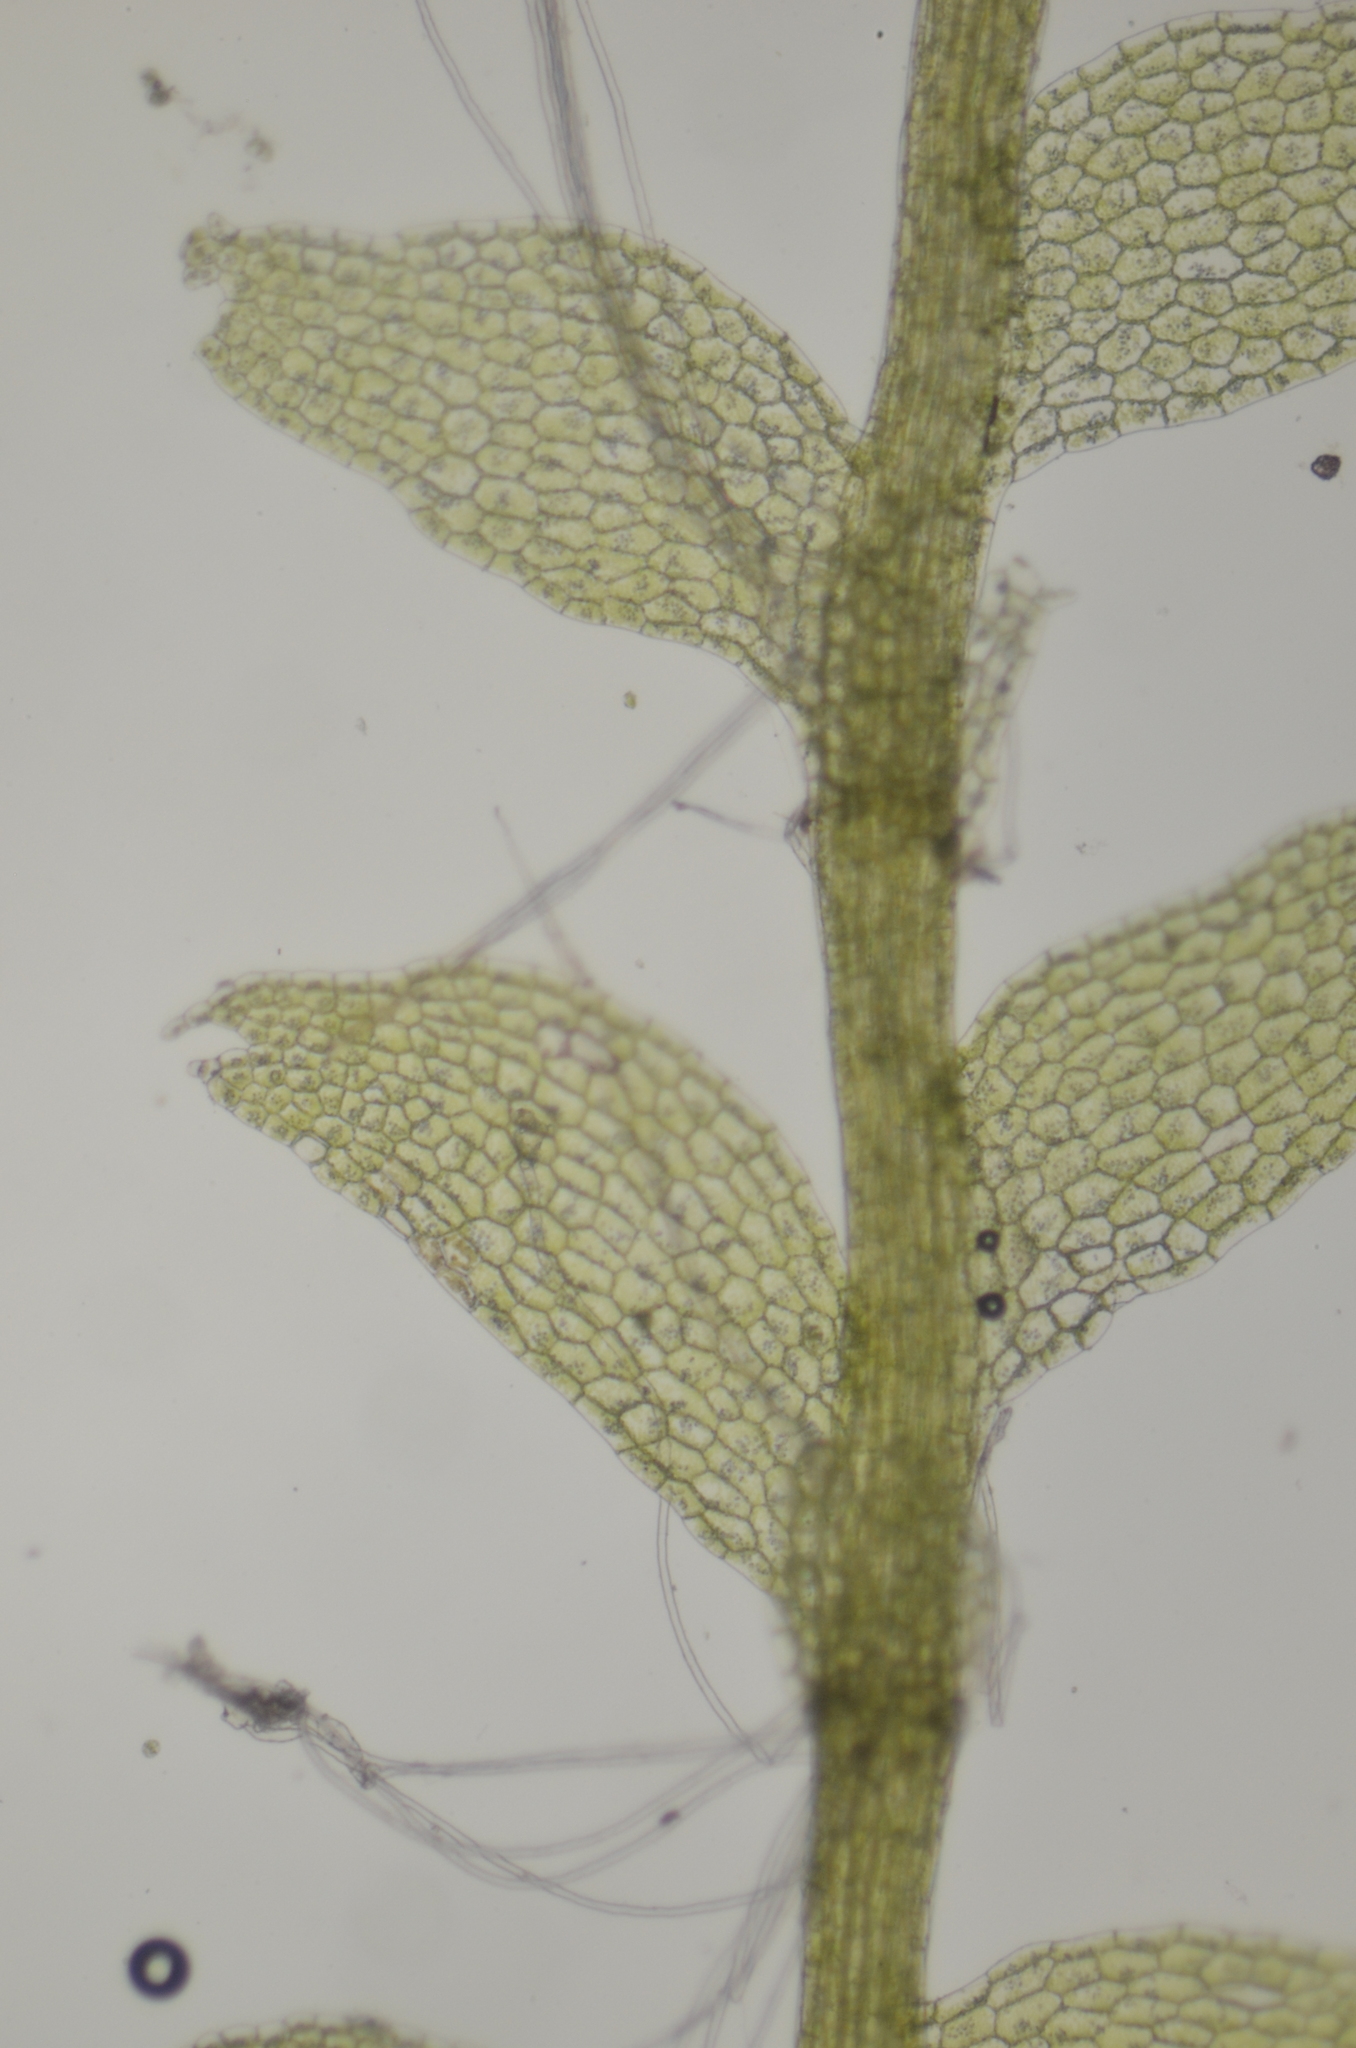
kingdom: Plantae
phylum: Marchantiophyta
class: Jungermanniopsida
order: Jungermanniales
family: Calypogeiaceae
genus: Calypogeia
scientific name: Calypogeia sphagnicola
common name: Bog pouchwort
